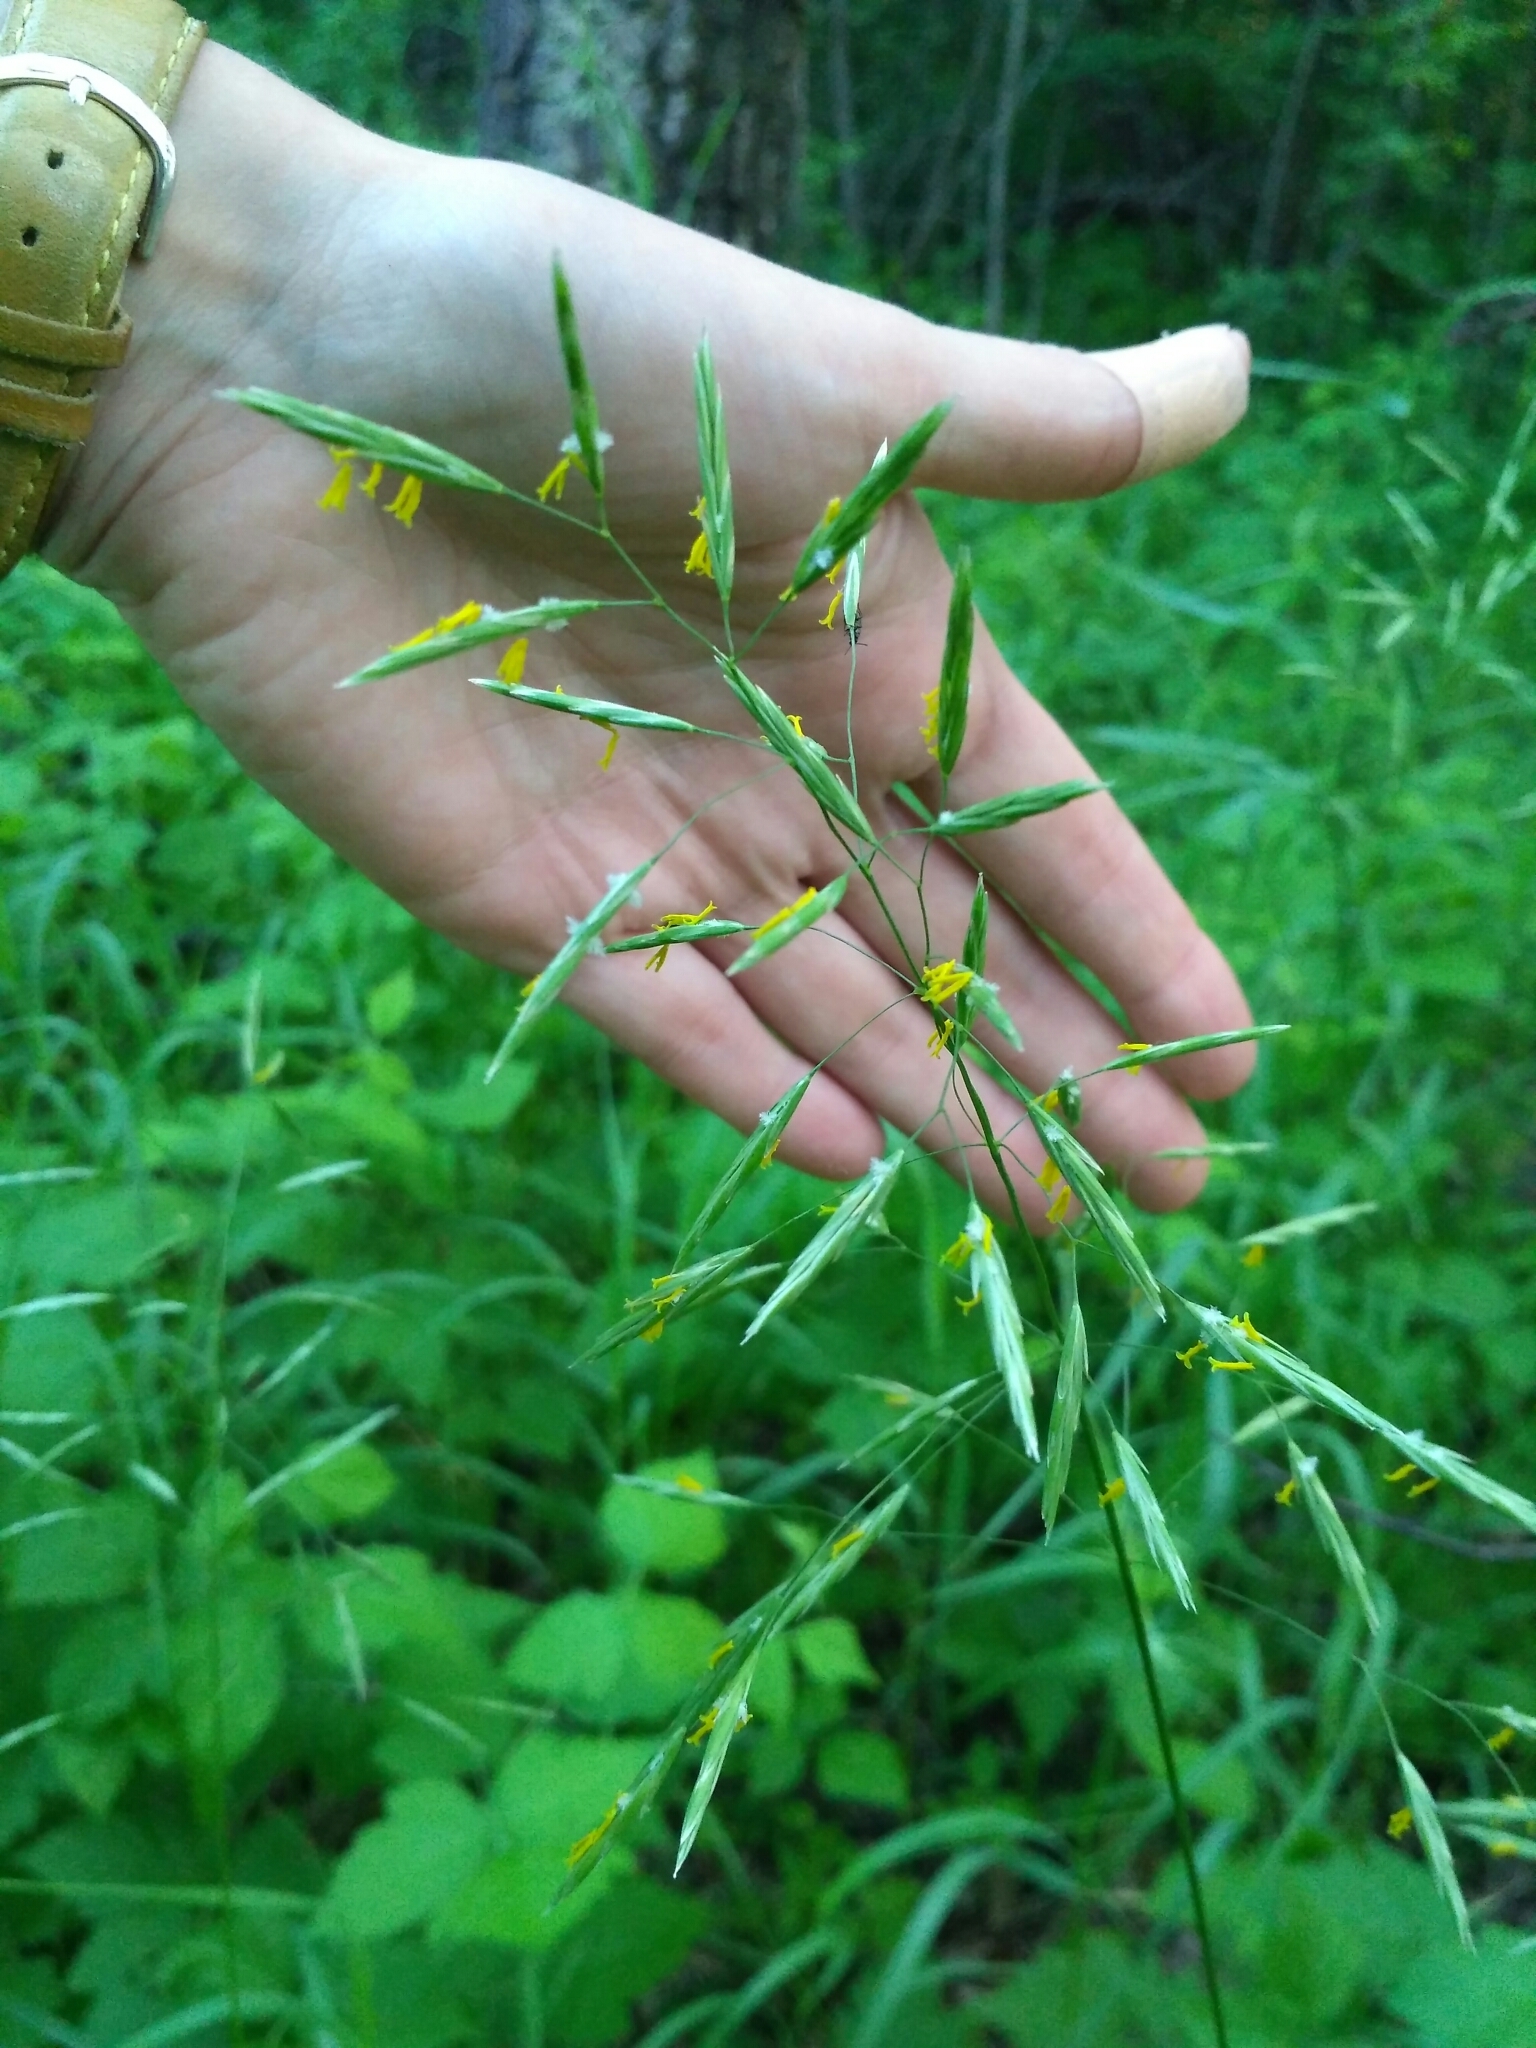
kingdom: Plantae
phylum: Tracheophyta
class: Liliopsida
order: Poales
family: Poaceae
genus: Bromus
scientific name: Bromus inermis
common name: Smooth brome
